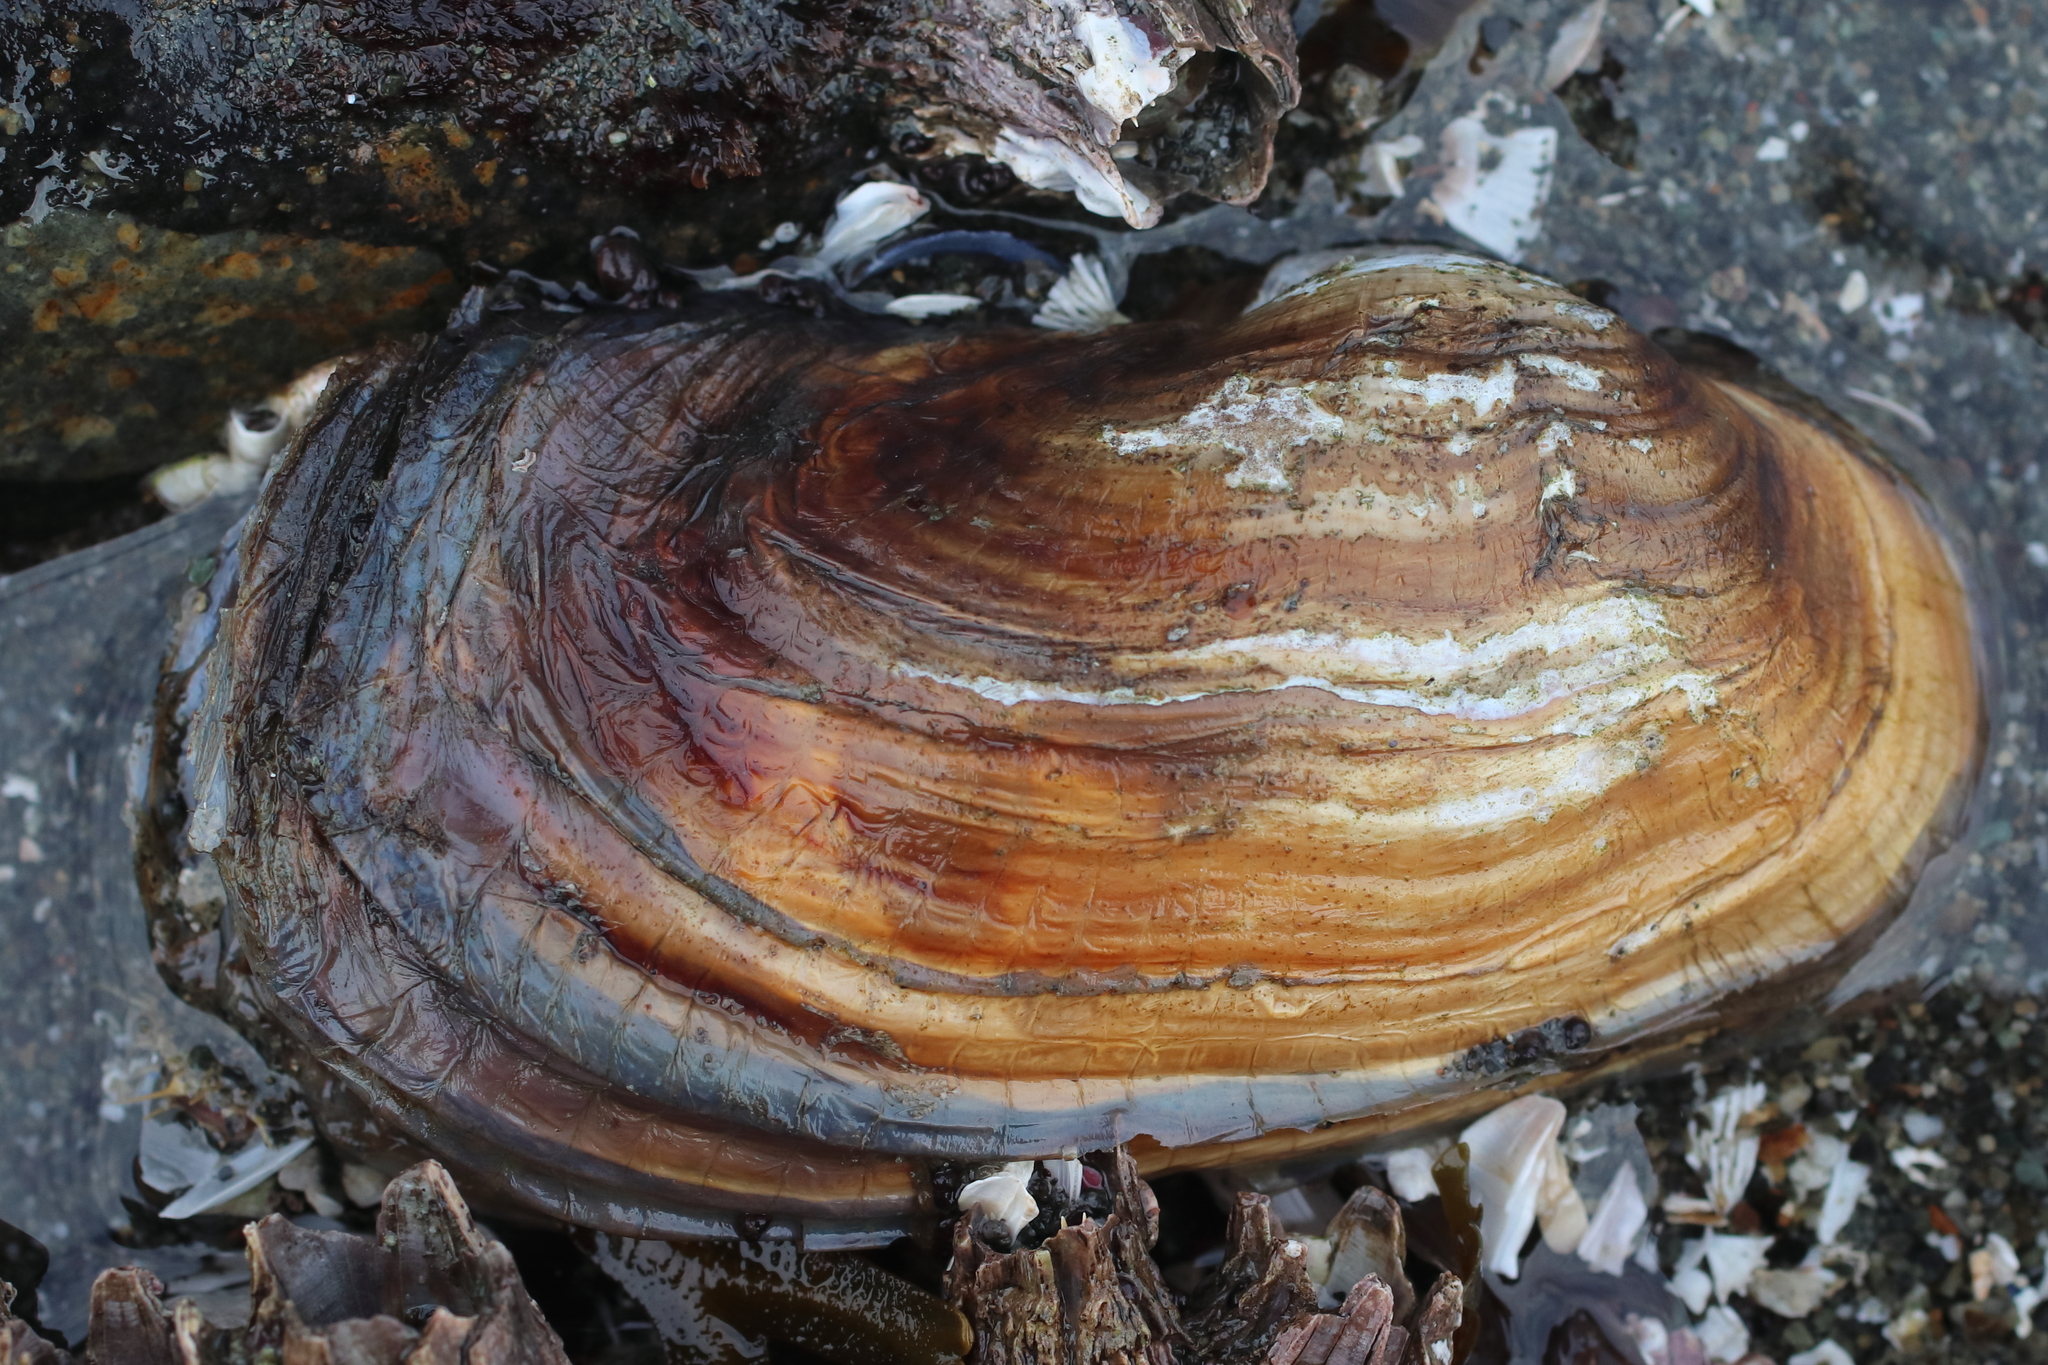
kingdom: Animalia
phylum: Mollusca
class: Bivalvia
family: Lyonsiidae
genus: Entodesma
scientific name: Entodesma navicula
